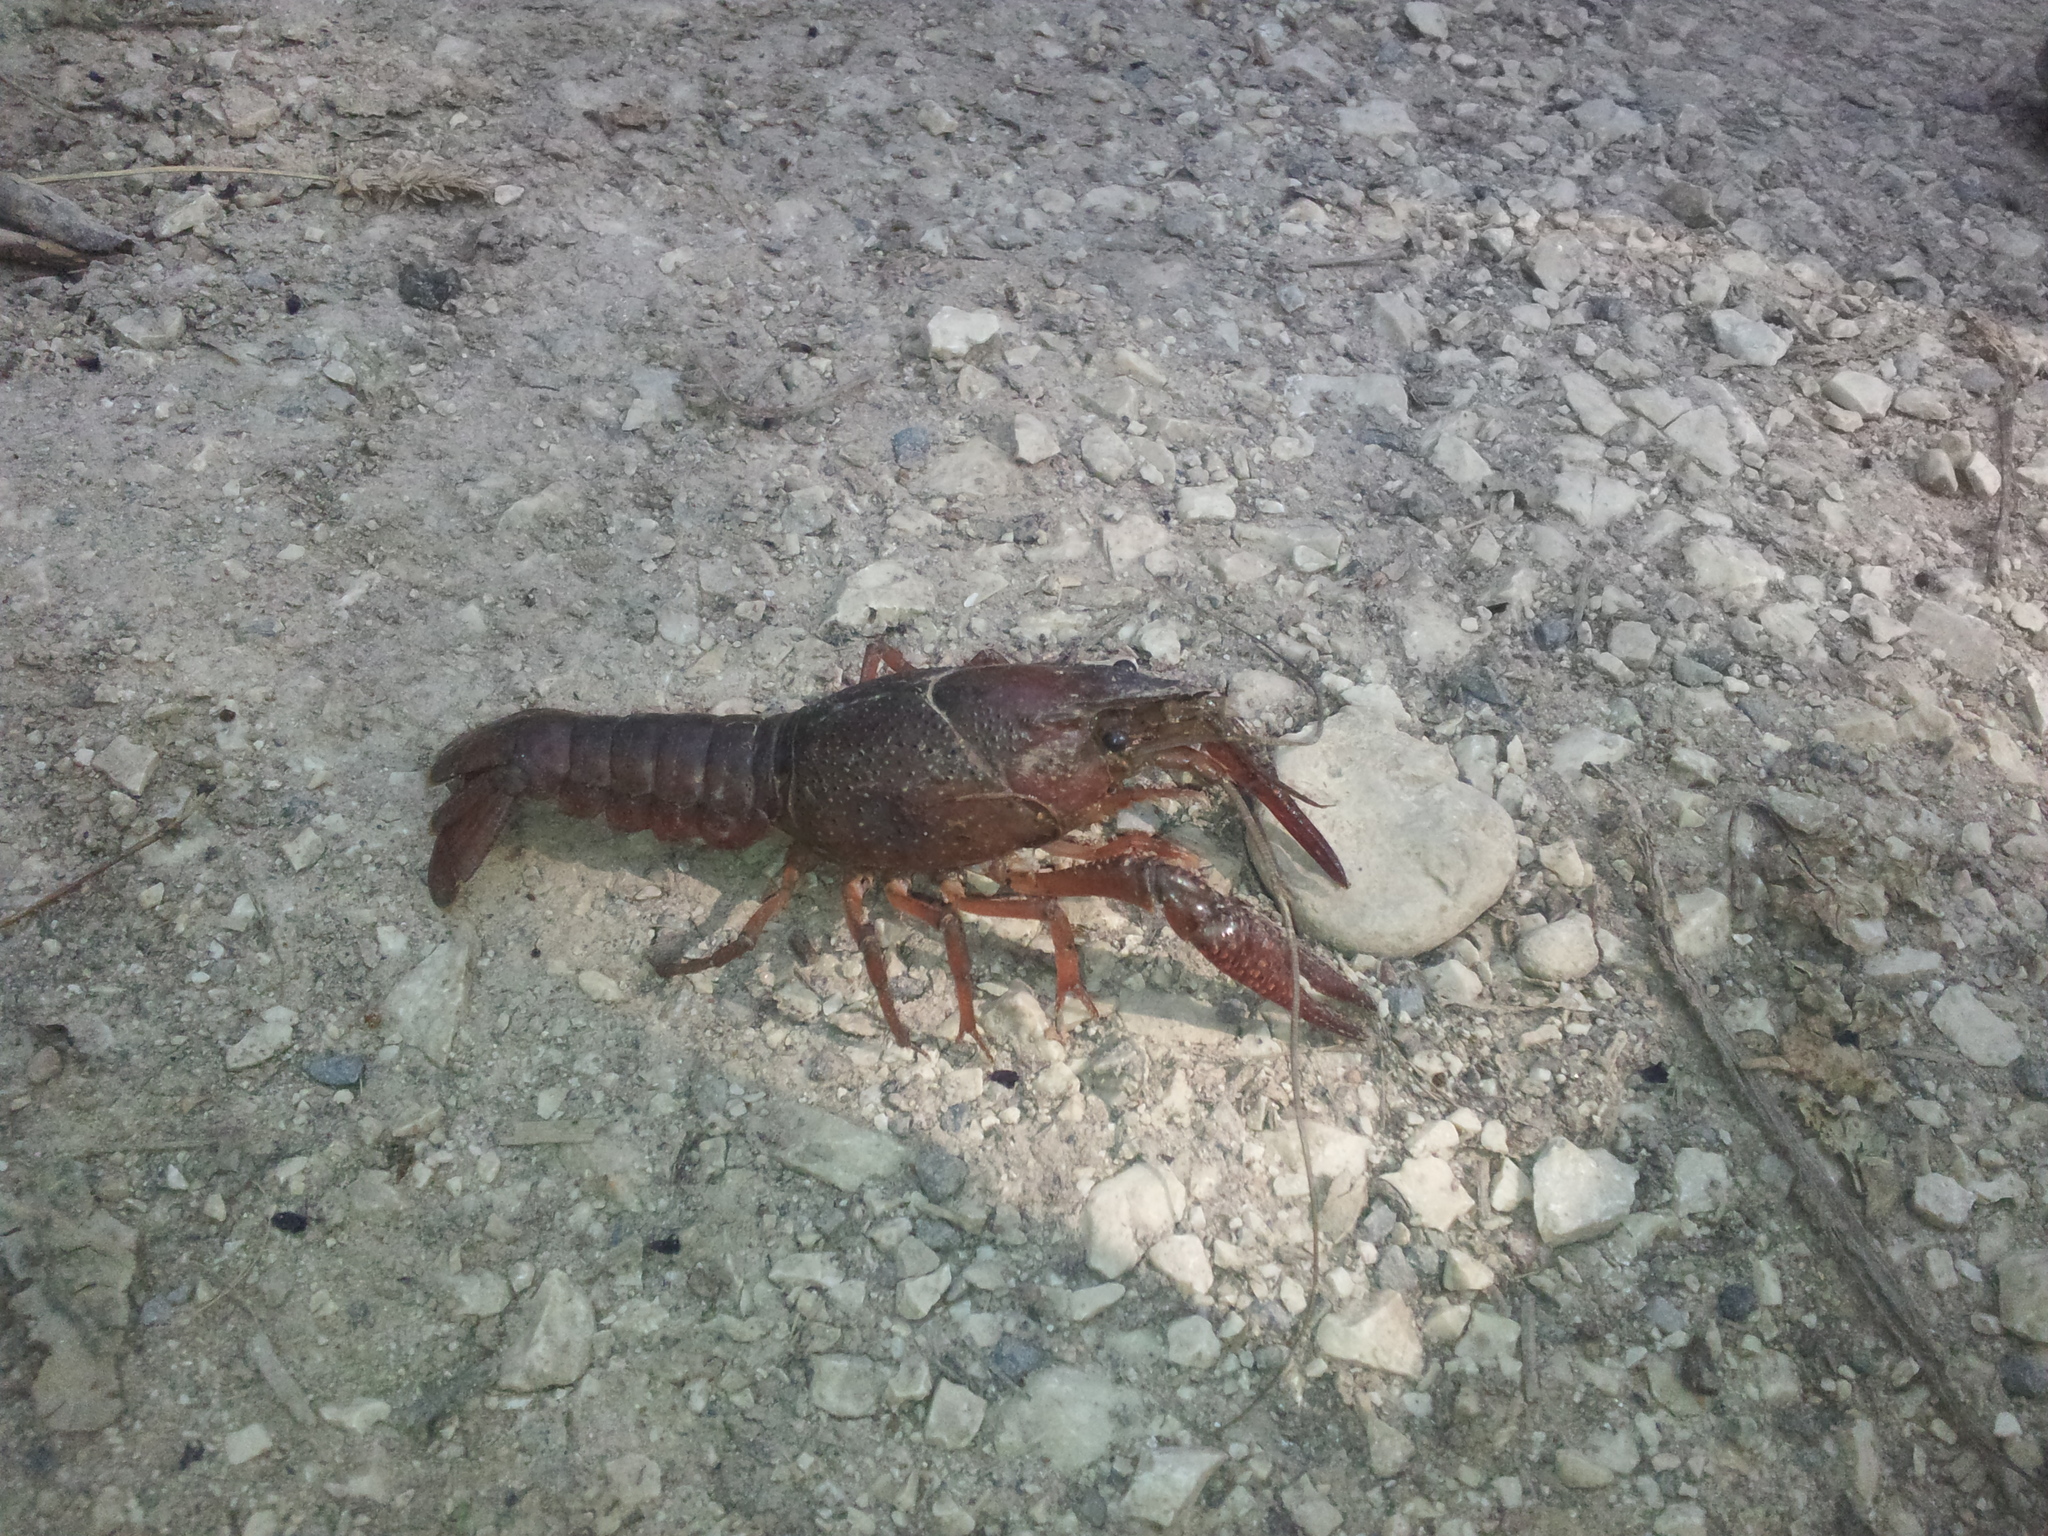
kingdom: Animalia
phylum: Arthropoda
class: Malacostraca
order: Decapoda
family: Cambaridae
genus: Procambarus
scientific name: Procambarus clarkii
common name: Red swamp crayfish
